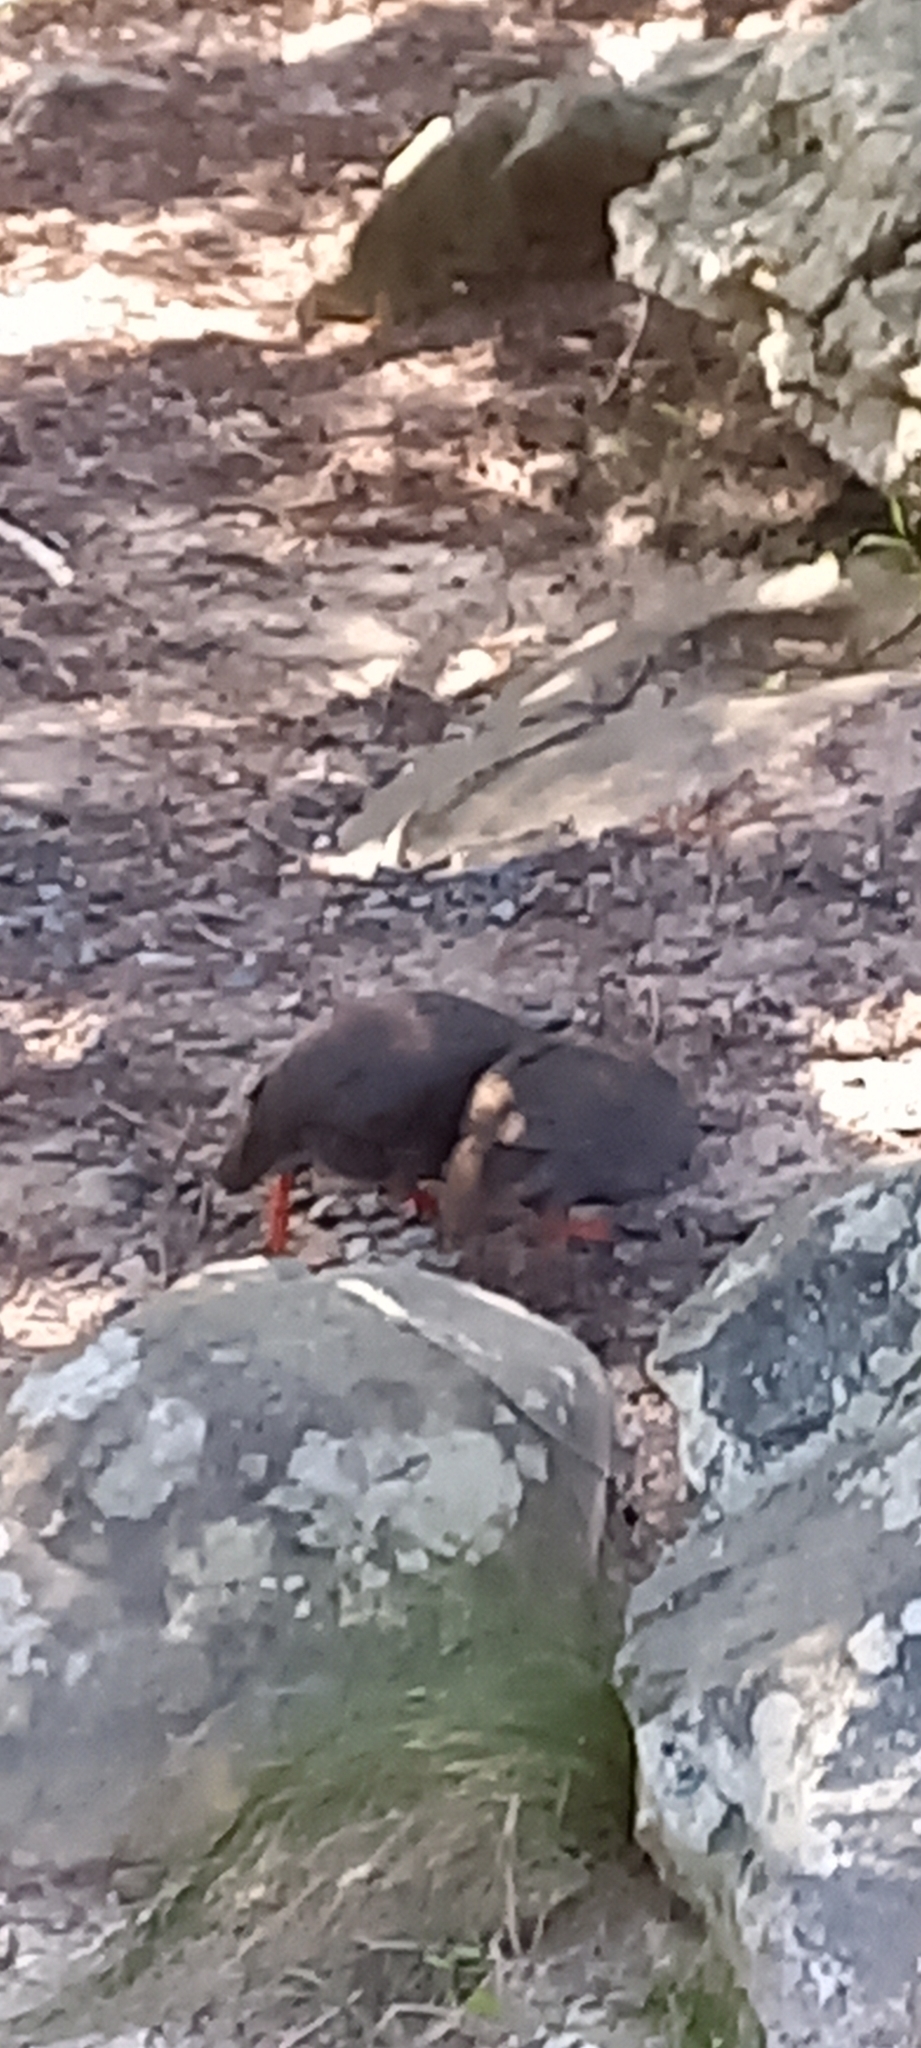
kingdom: Animalia
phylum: Chordata
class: Aves
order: Galliformes
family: Phasianidae
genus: Pternistis
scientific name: Pternistis capensis
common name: Cape spurfowl
